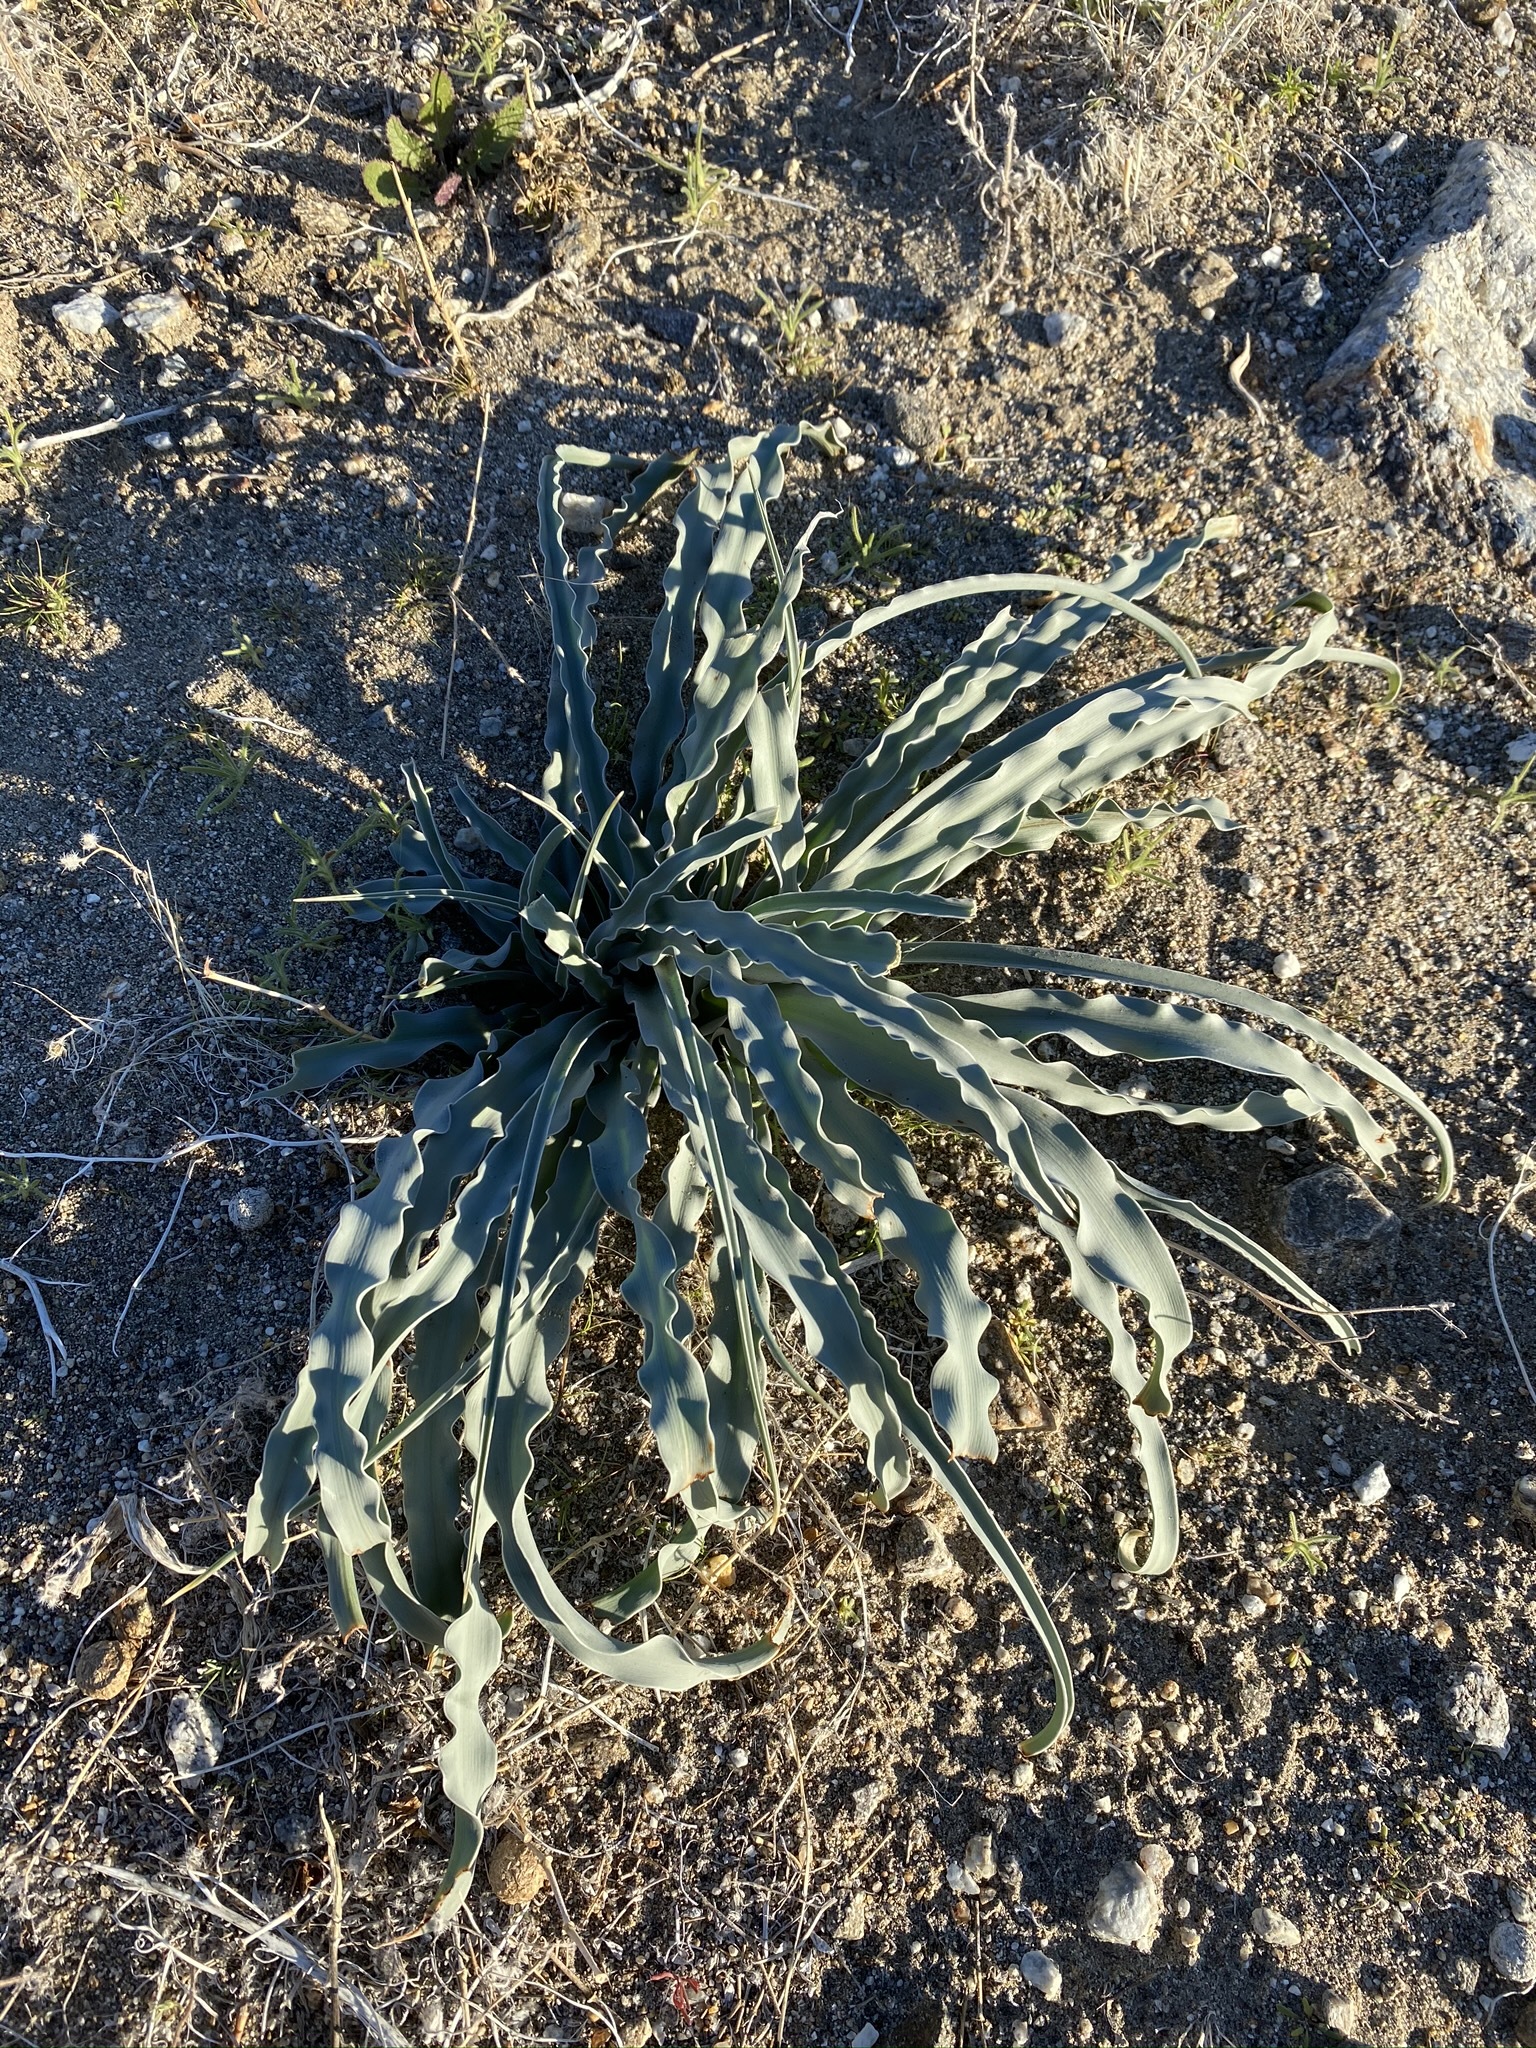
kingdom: Plantae
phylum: Tracheophyta
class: Liliopsida
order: Asparagales
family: Asparagaceae
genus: Hesperocallis
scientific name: Hesperocallis undulata
